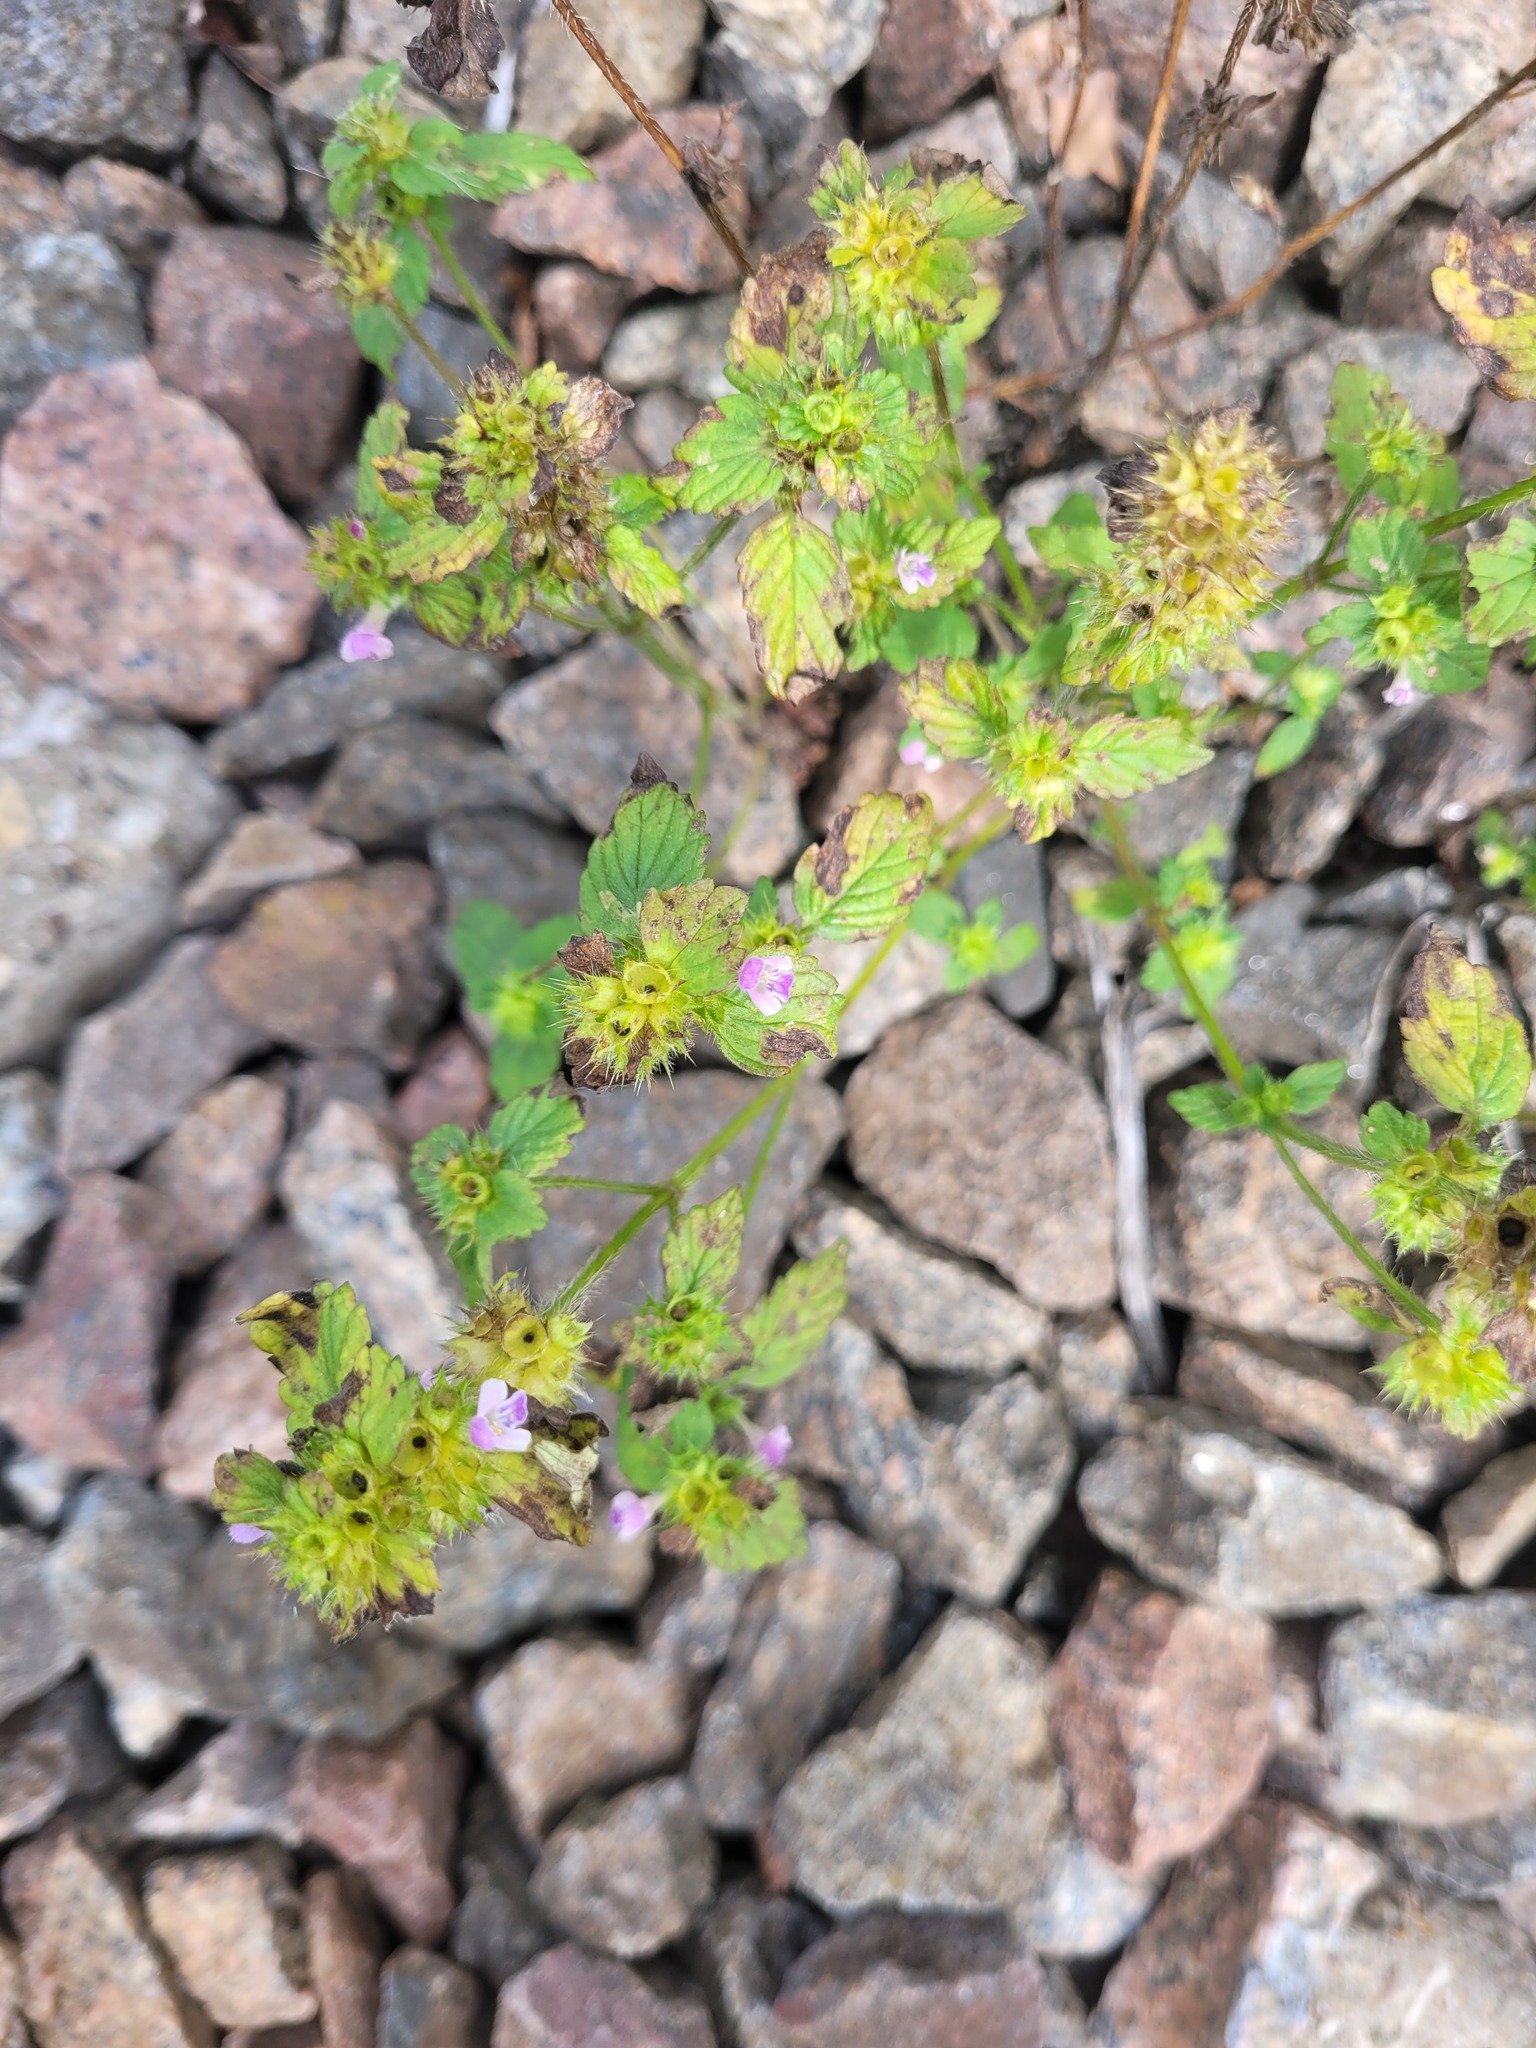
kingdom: Plantae
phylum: Tracheophyta
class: Magnoliopsida
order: Lamiales
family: Lamiaceae
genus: Galeopsis
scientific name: Galeopsis bifida
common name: Bifid hemp-nettle
